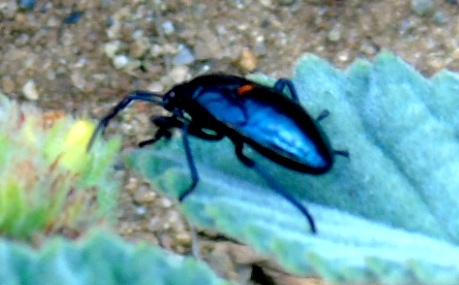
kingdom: Animalia
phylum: Arthropoda
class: Insecta
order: Hemiptera
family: Largidae
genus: Largus
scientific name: Largus
